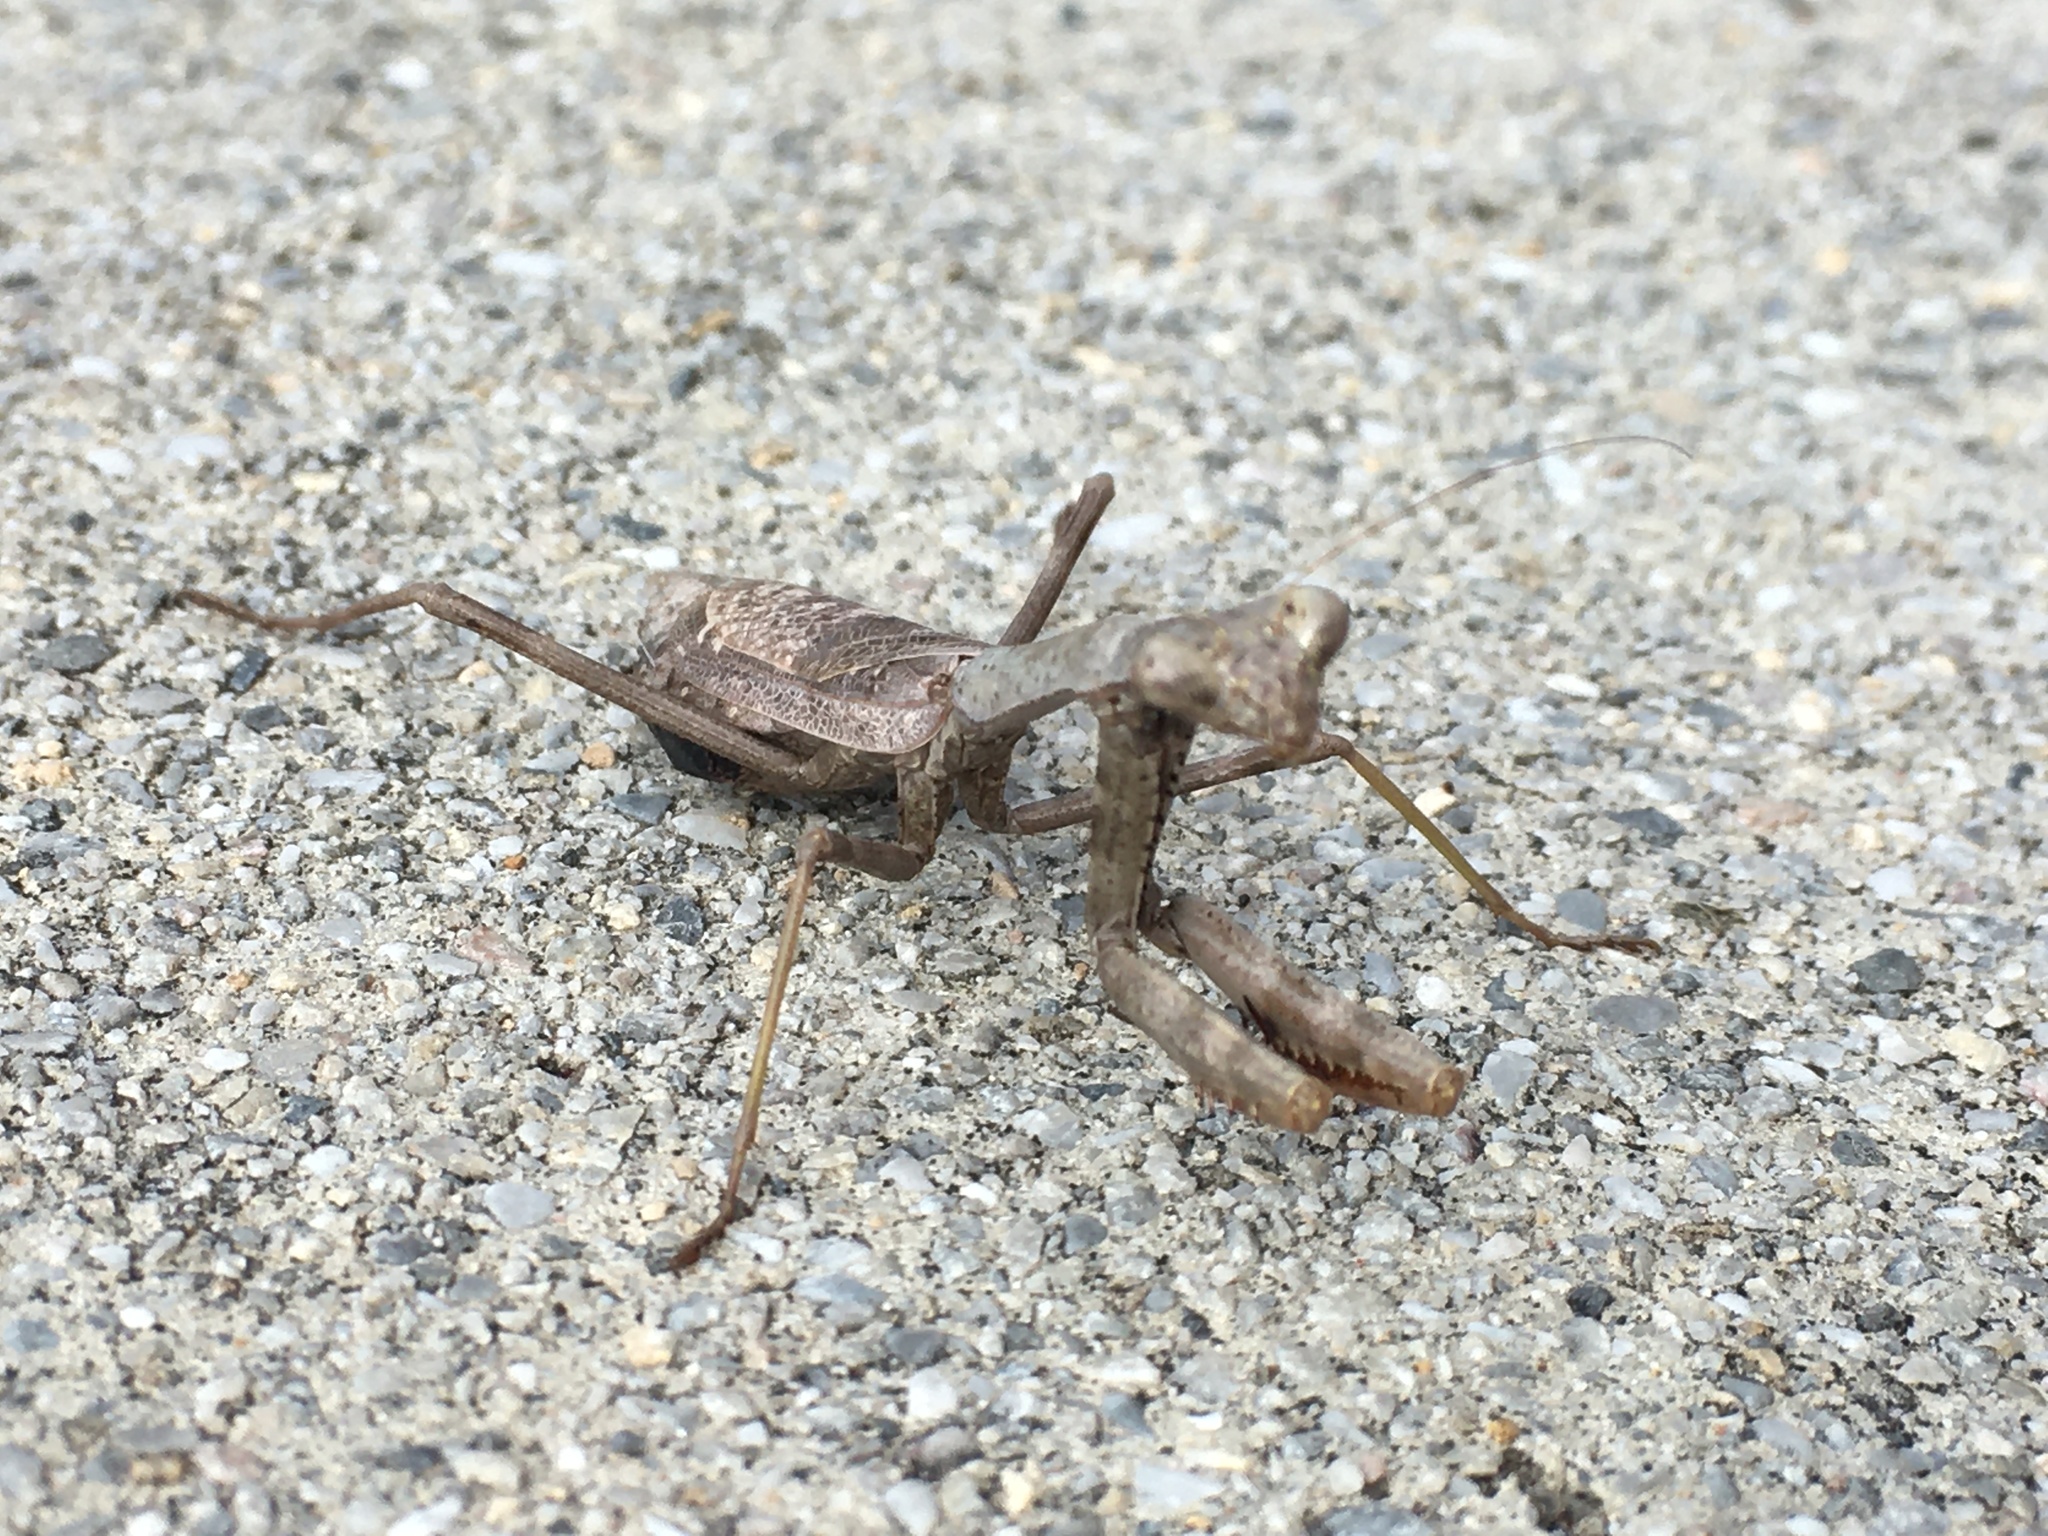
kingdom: Animalia
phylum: Arthropoda
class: Insecta
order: Mantodea
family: Mantidae
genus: Stagmomantis
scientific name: Stagmomantis carolina
